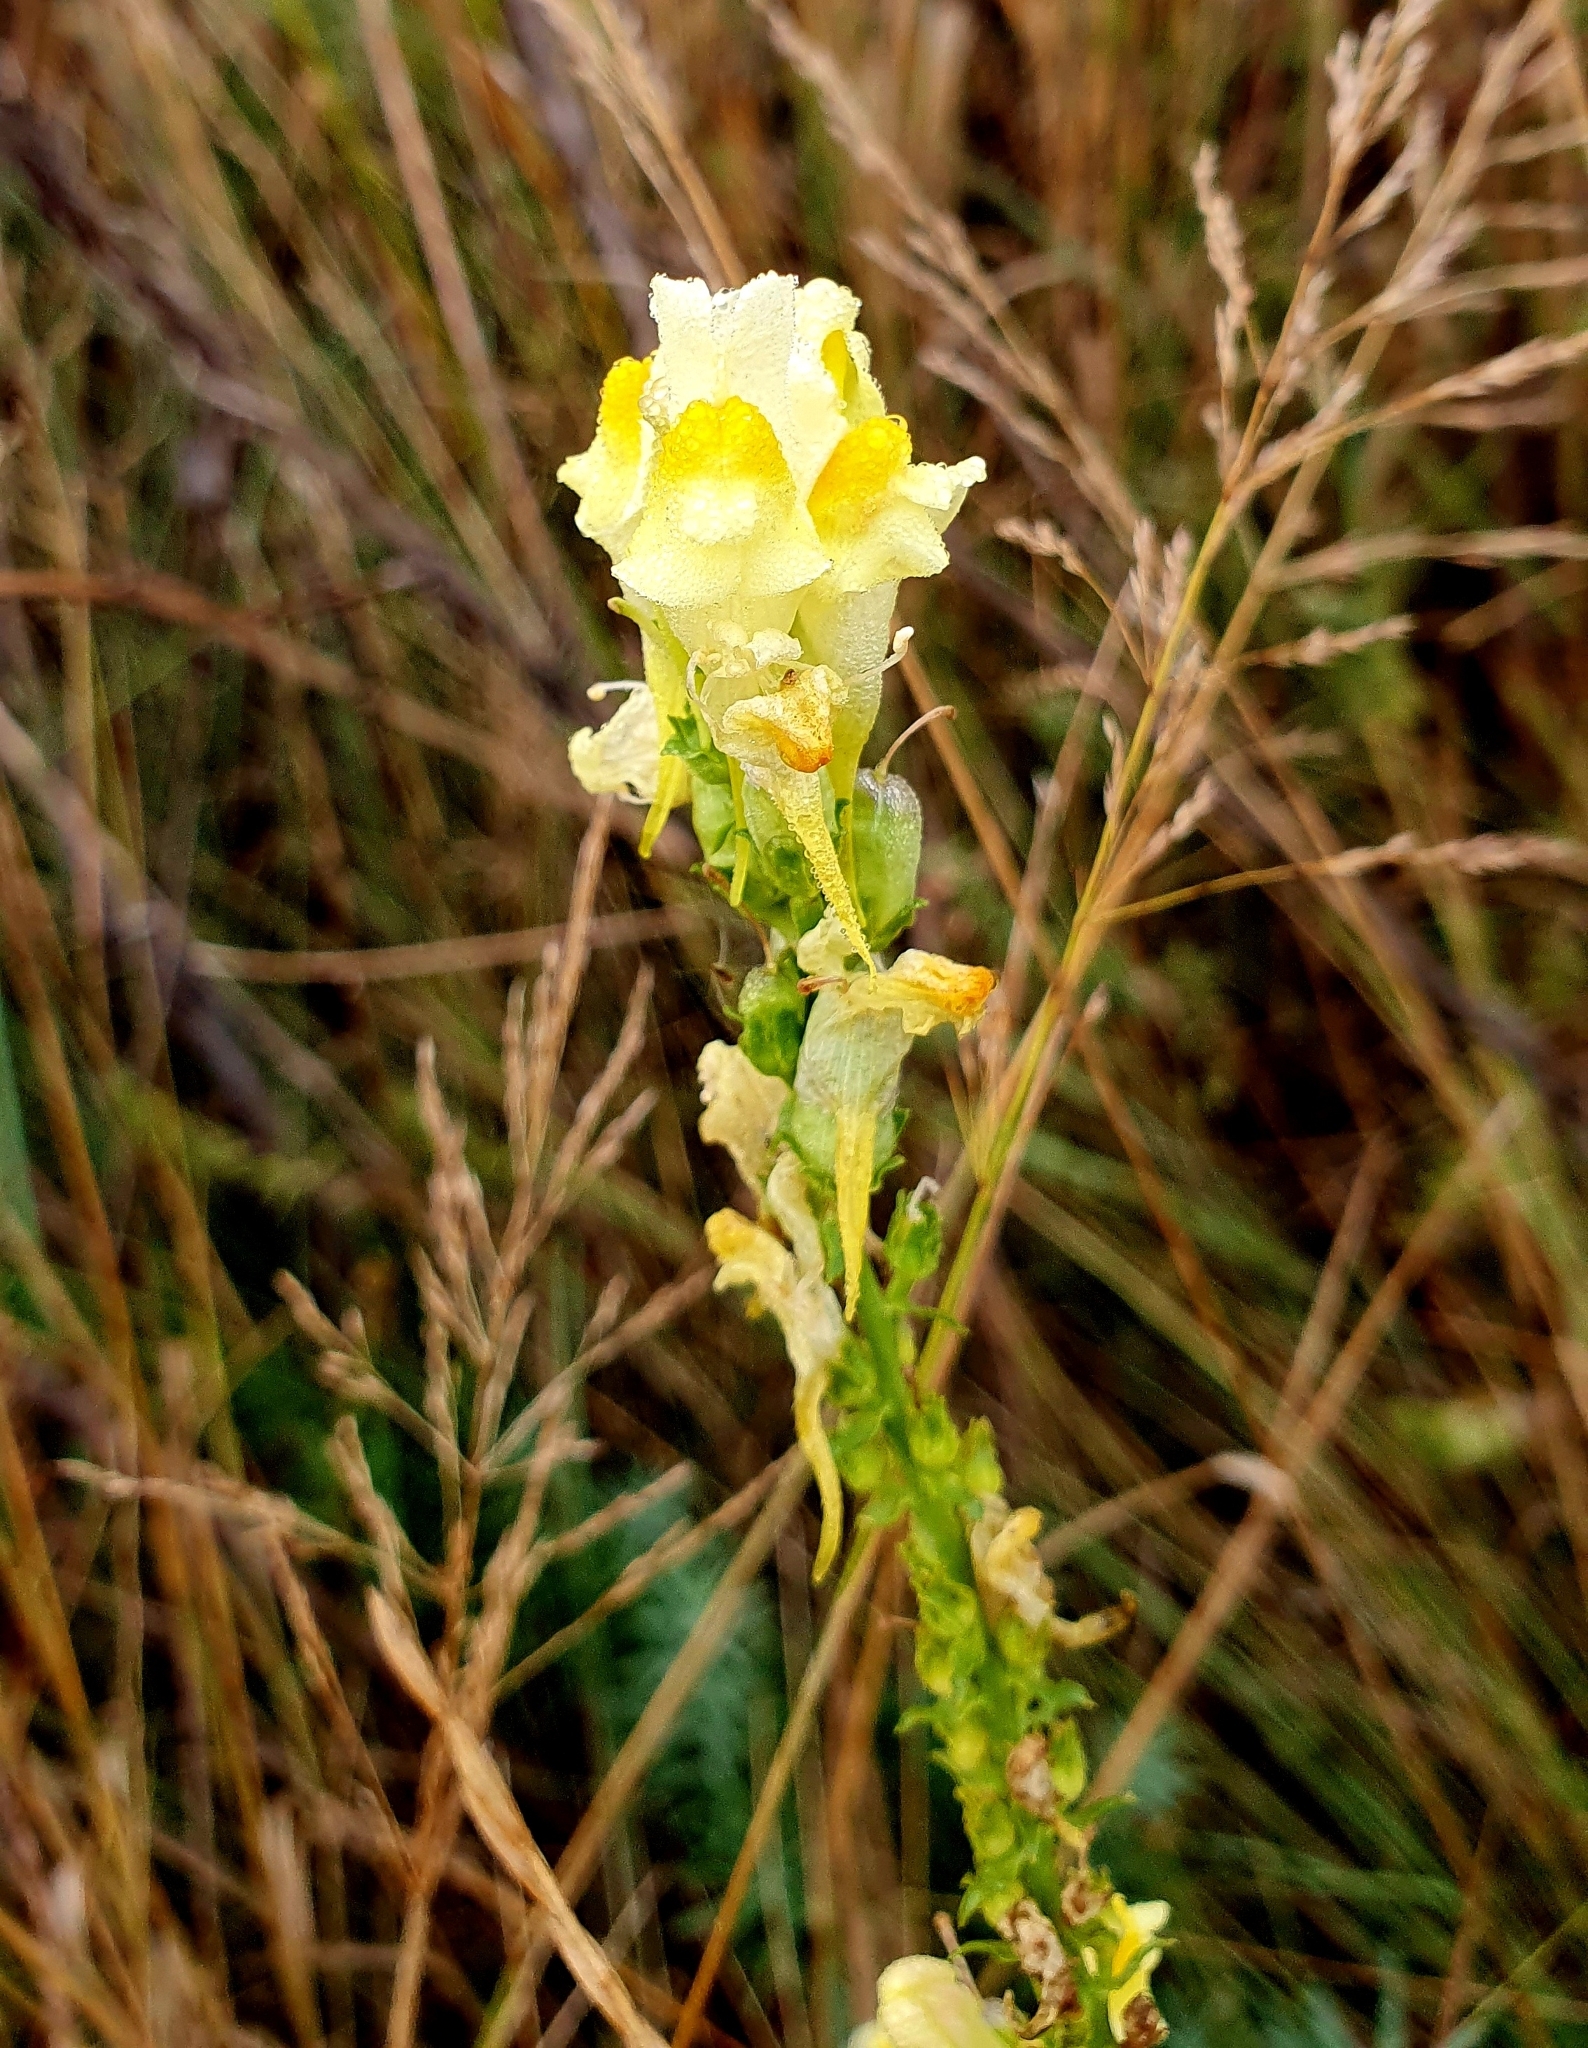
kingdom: Plantae
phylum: Tracheophyta
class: Magnoliopsida
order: Lamiales
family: Plantaginaceae
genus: Linaria
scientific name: Linaria vulgaris
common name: Butter and eggs
